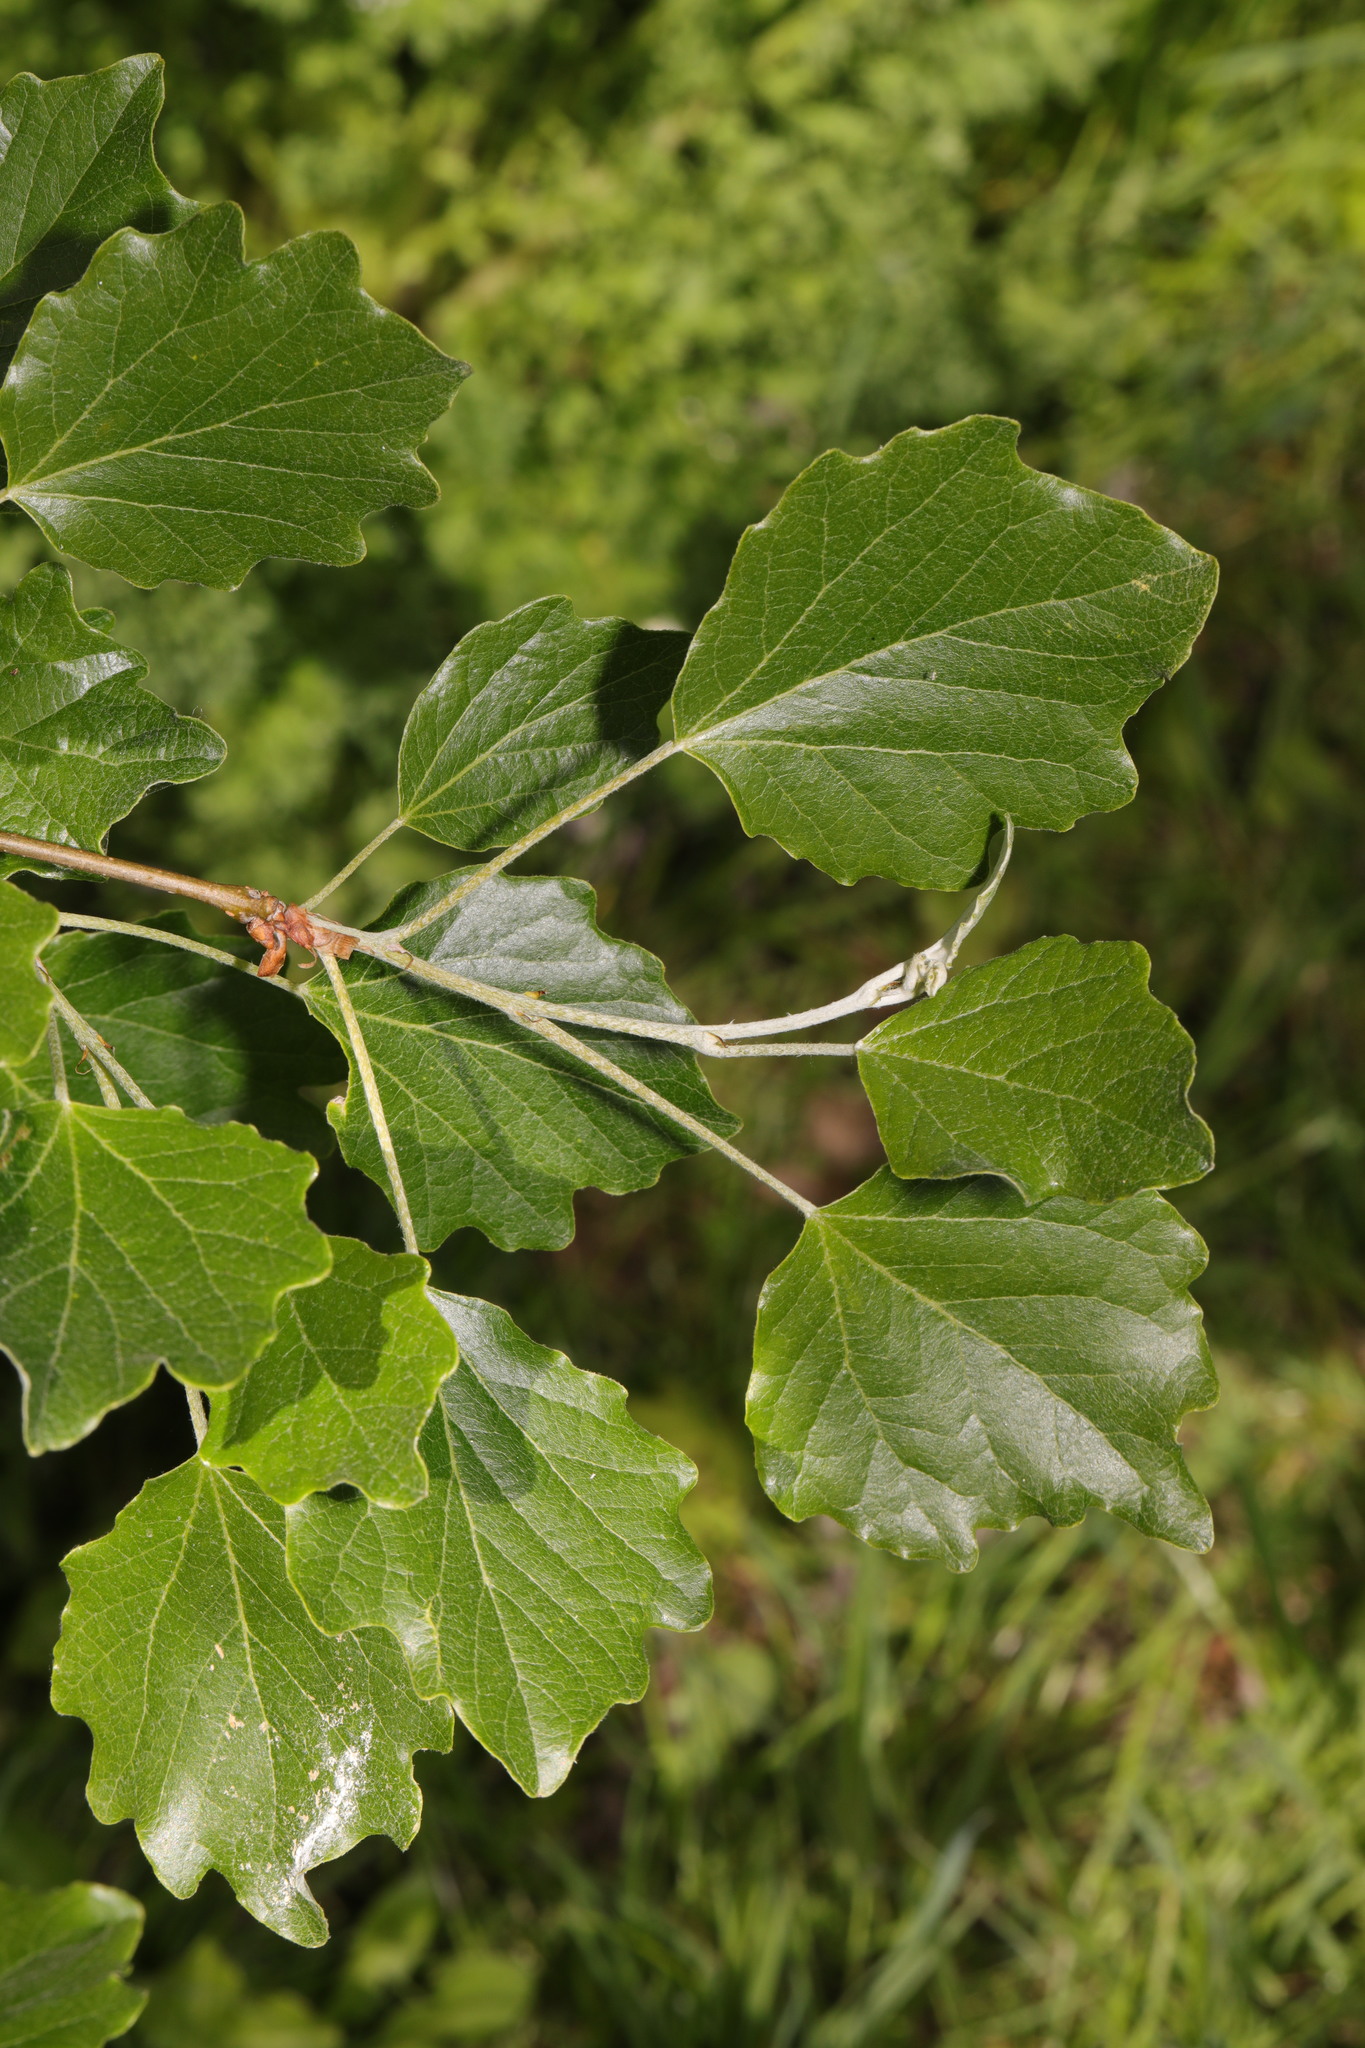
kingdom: Plantae
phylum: Tracheophyta
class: Magnoliopsida
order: Malpighiales
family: Salicaceae
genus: Populus
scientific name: Populus alba
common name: White poplar
